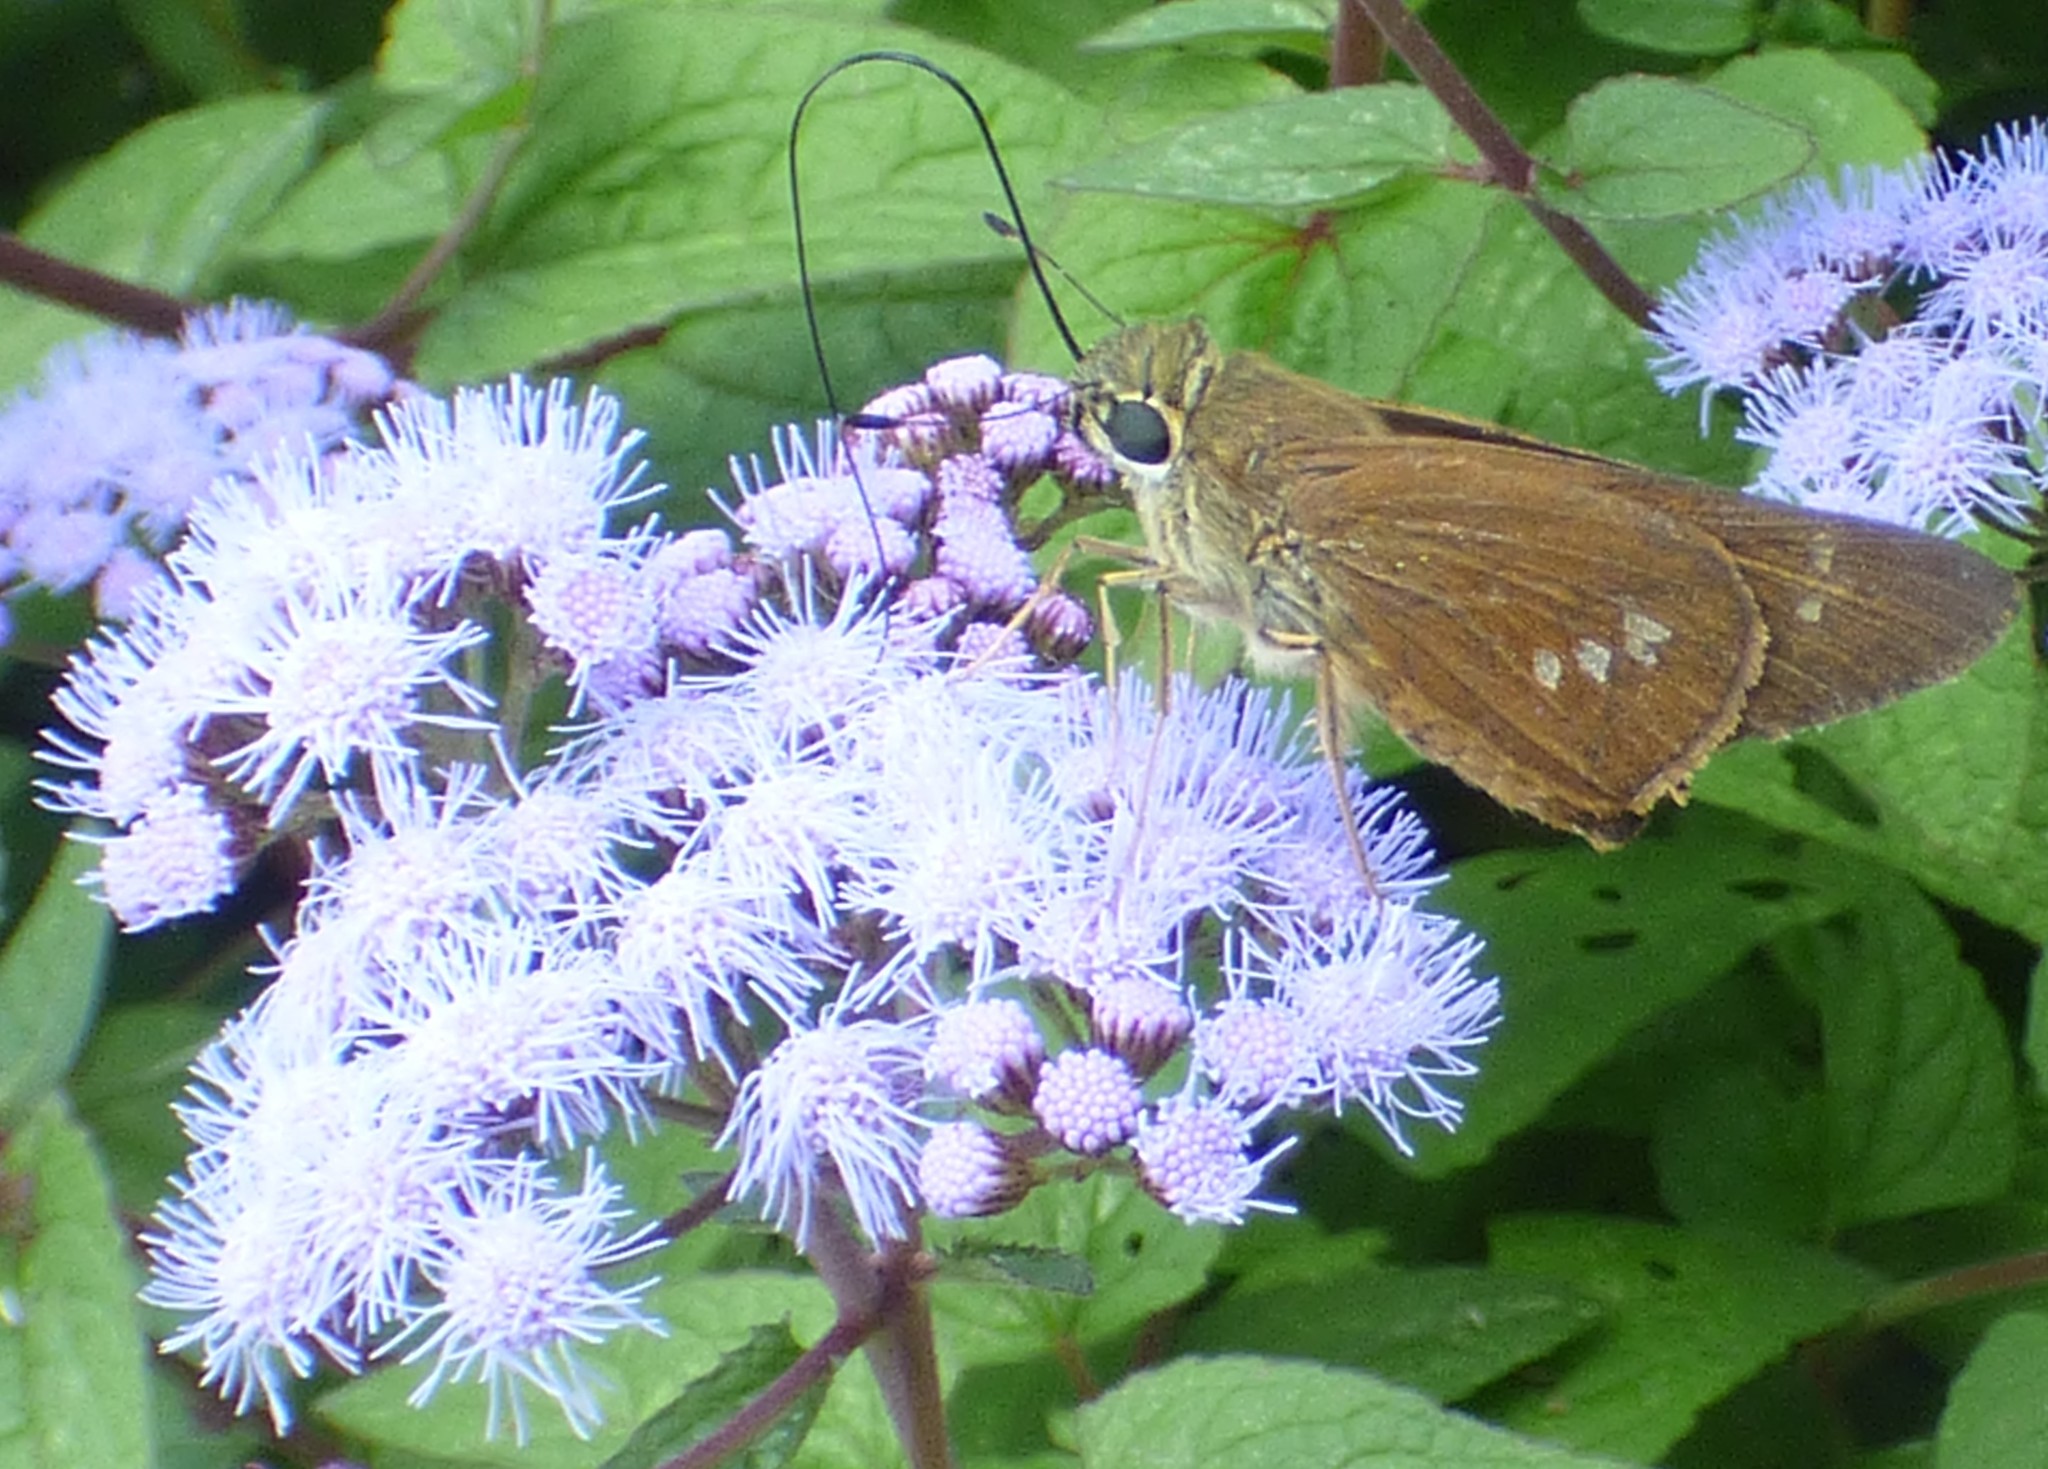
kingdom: Animalia
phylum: Arthropoda
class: Insecta
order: Lepidoptera
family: Hesperiidae
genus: Calpodes
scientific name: Calpodes ethlius
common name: Brazilian skipper
